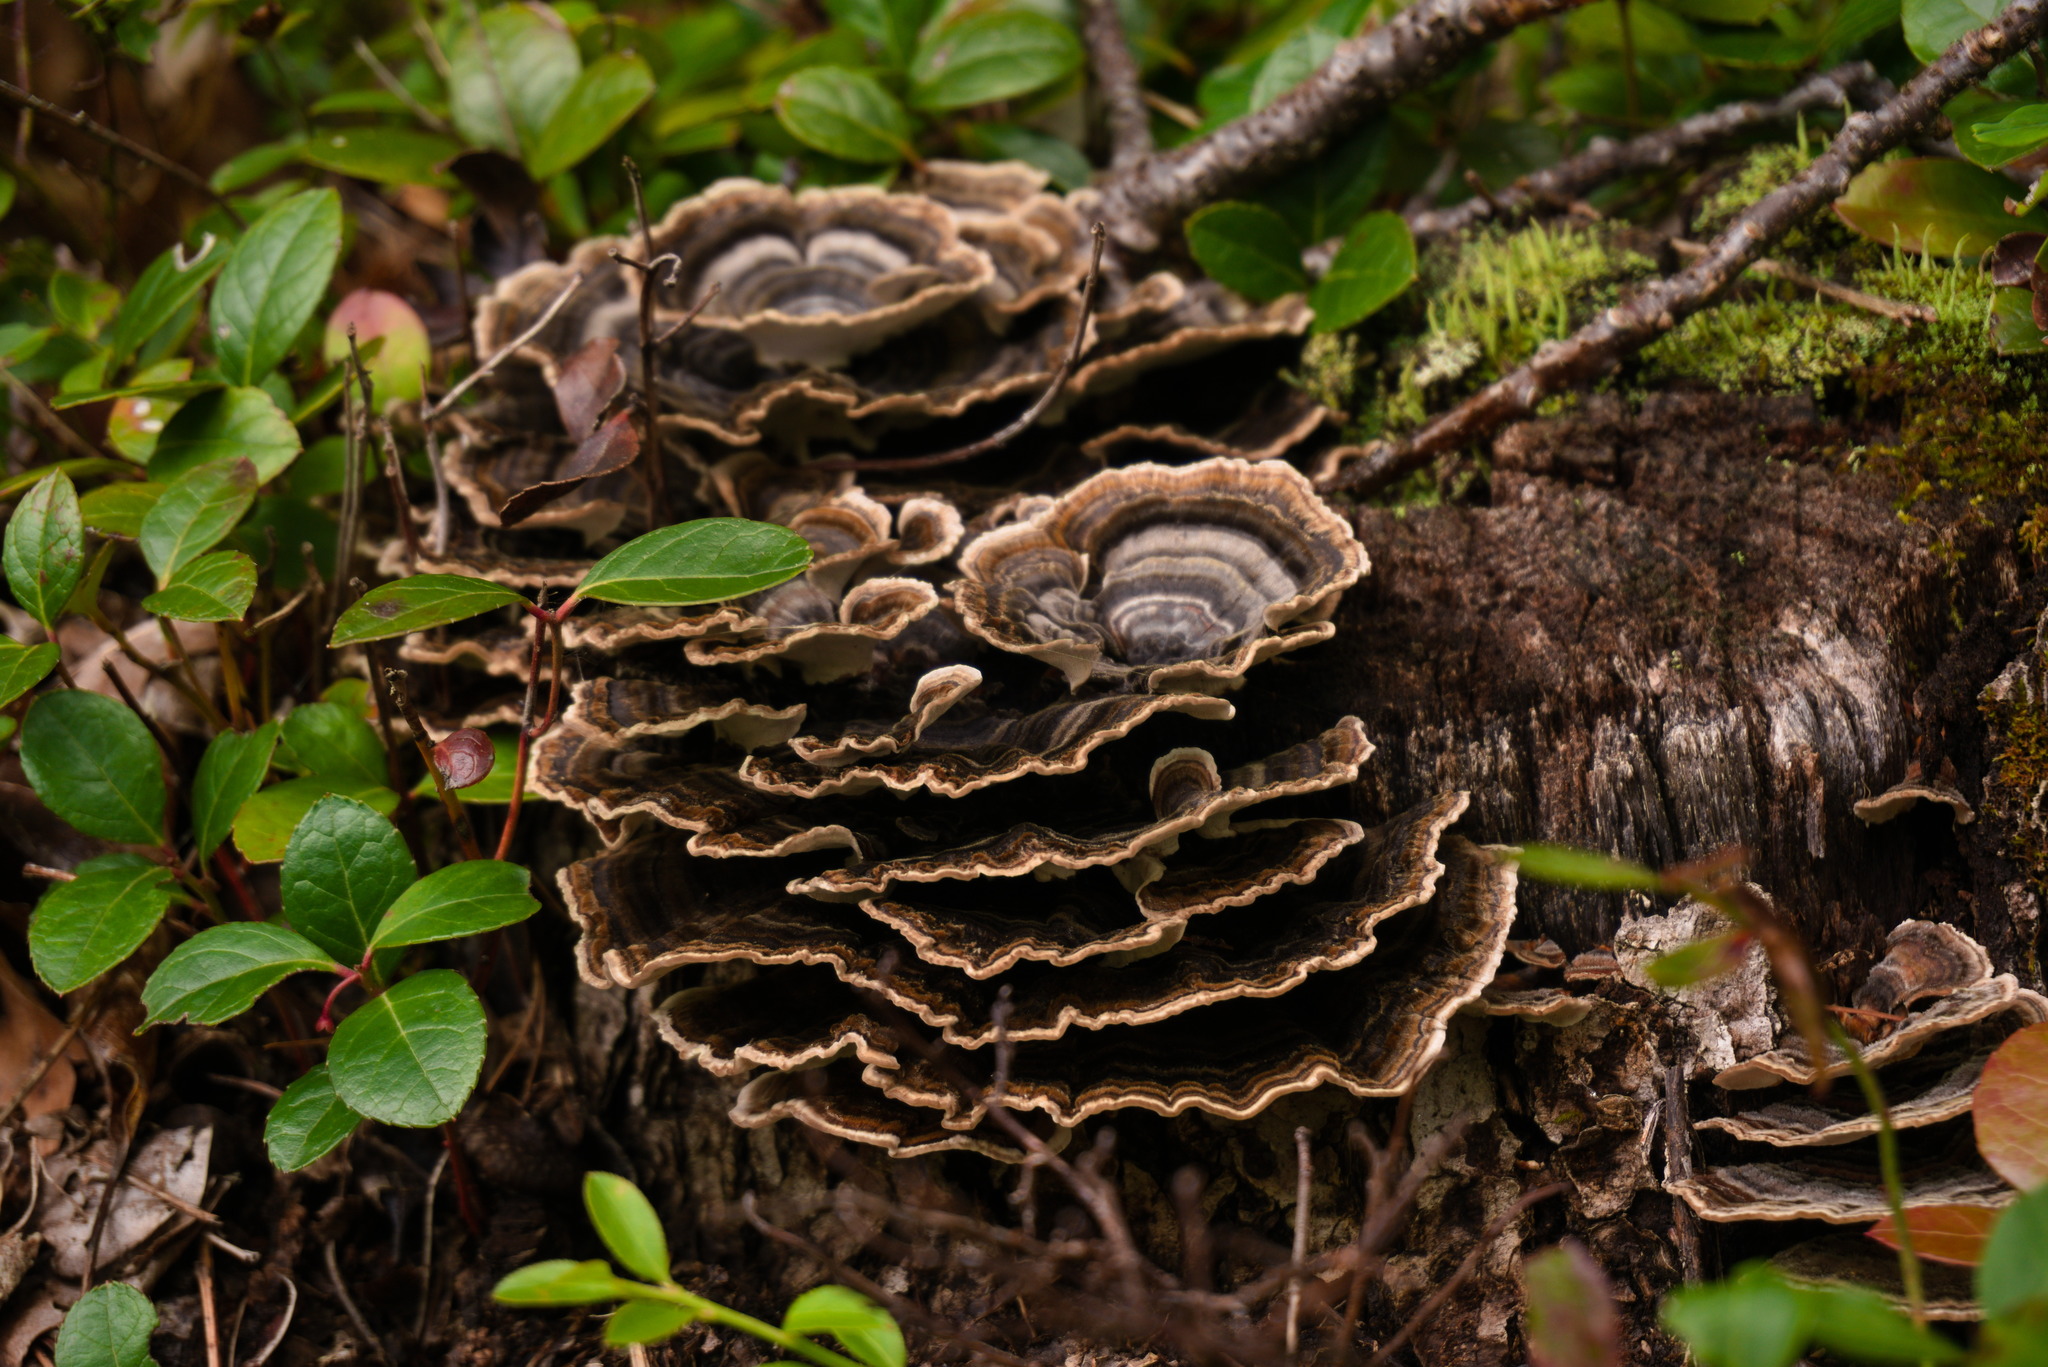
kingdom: Fungi
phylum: Basidiomycota
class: Agaricomycetes
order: Polyporales
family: Polyporaceae
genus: Trametes
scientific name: Trametes versicolor
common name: Turkeytail
